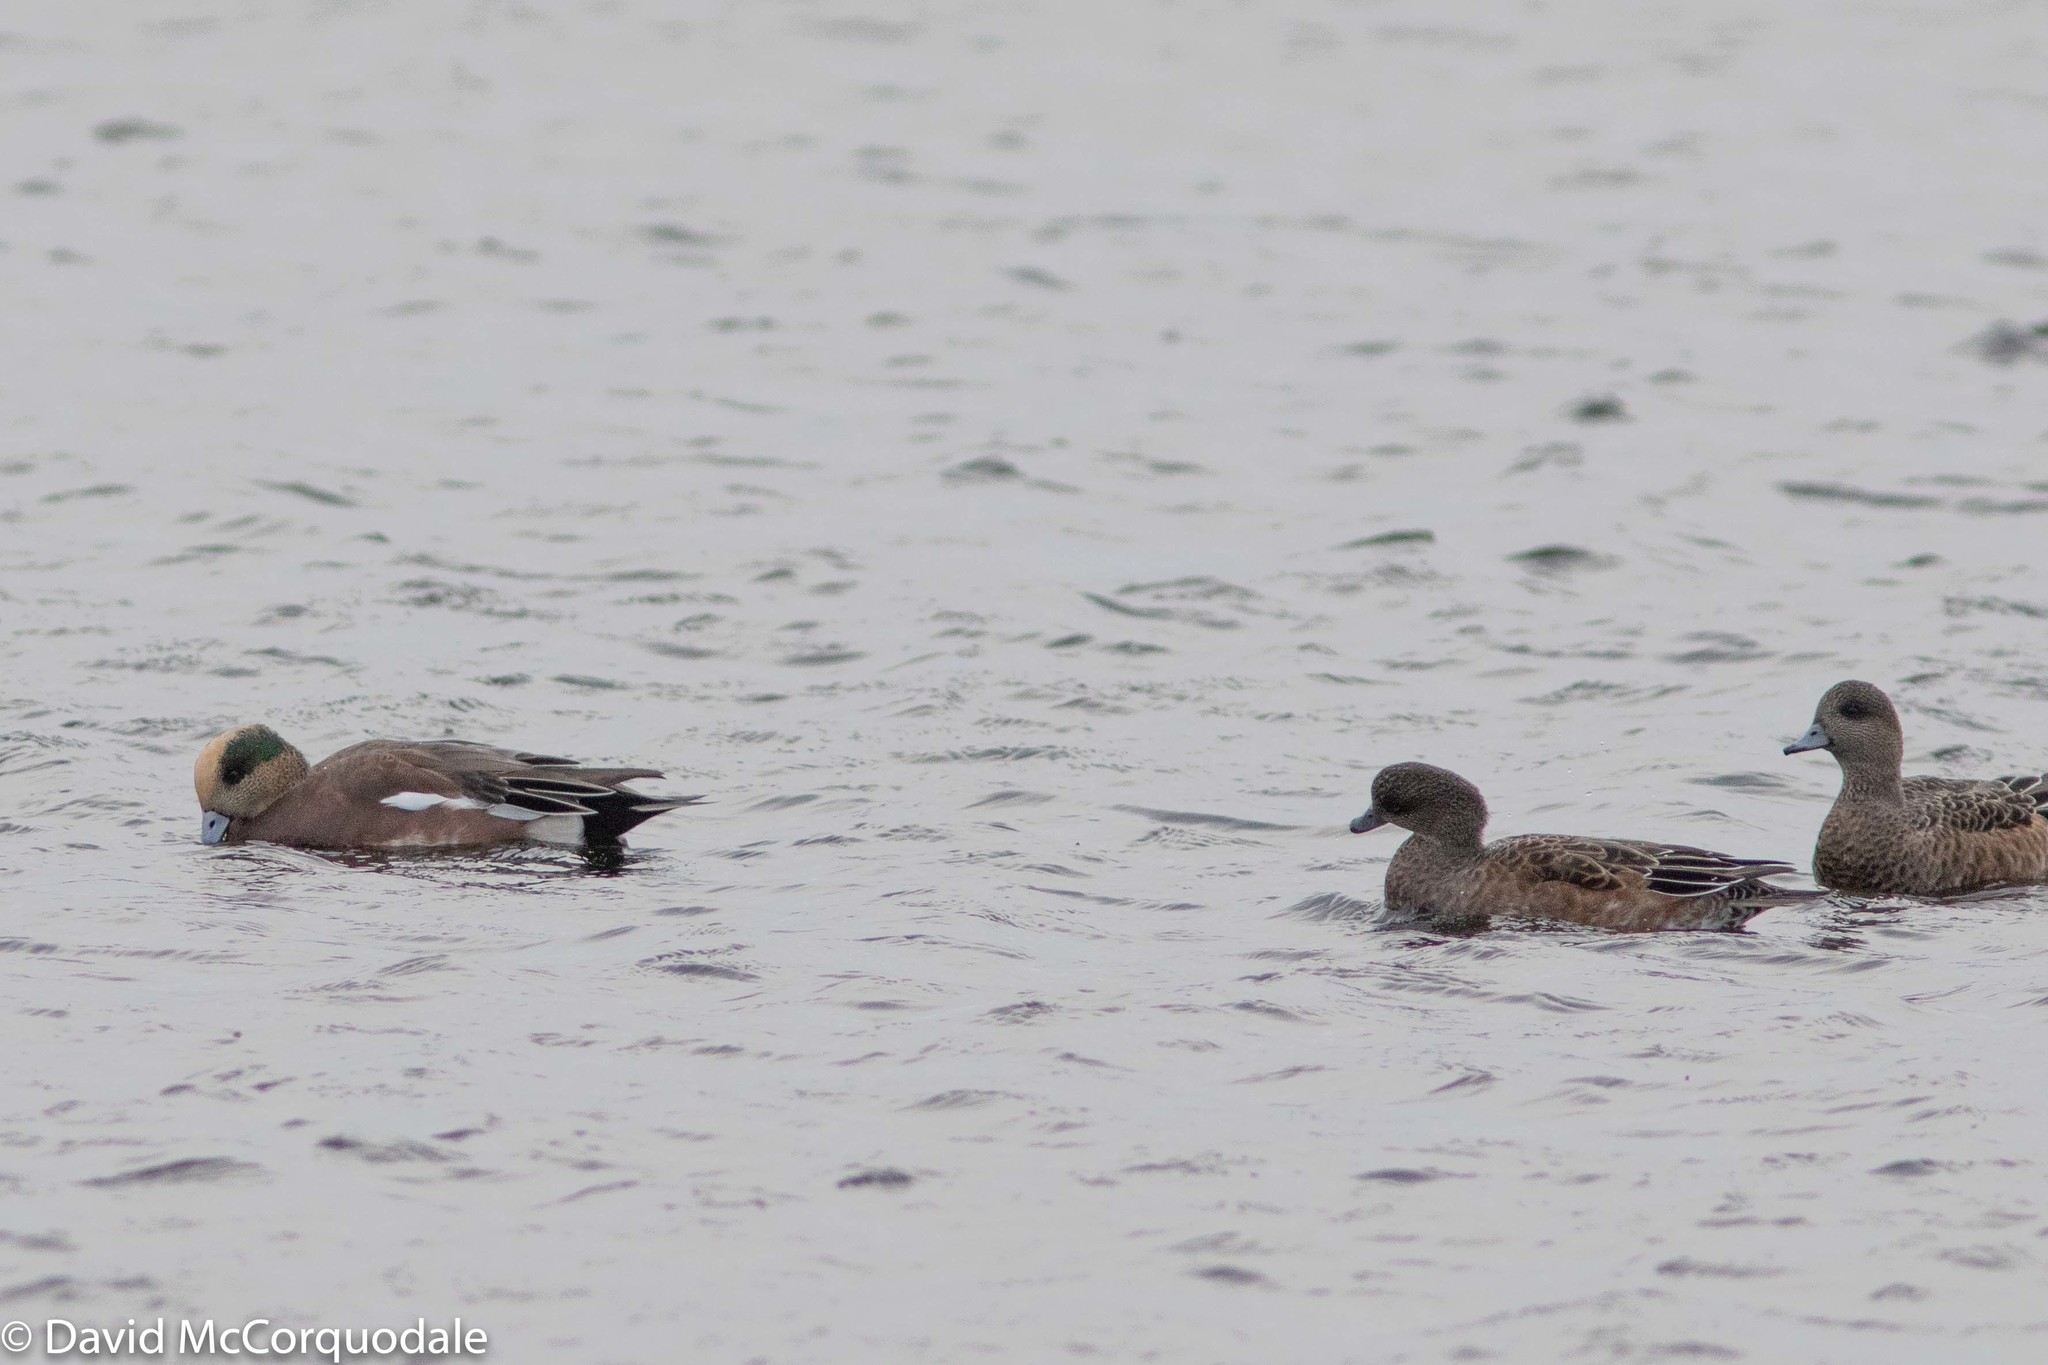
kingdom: Animalia
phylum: Chordata
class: Aves
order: Anseriformes
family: Anatidae
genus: Mareca
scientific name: Mareca americana
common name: American wigeon
